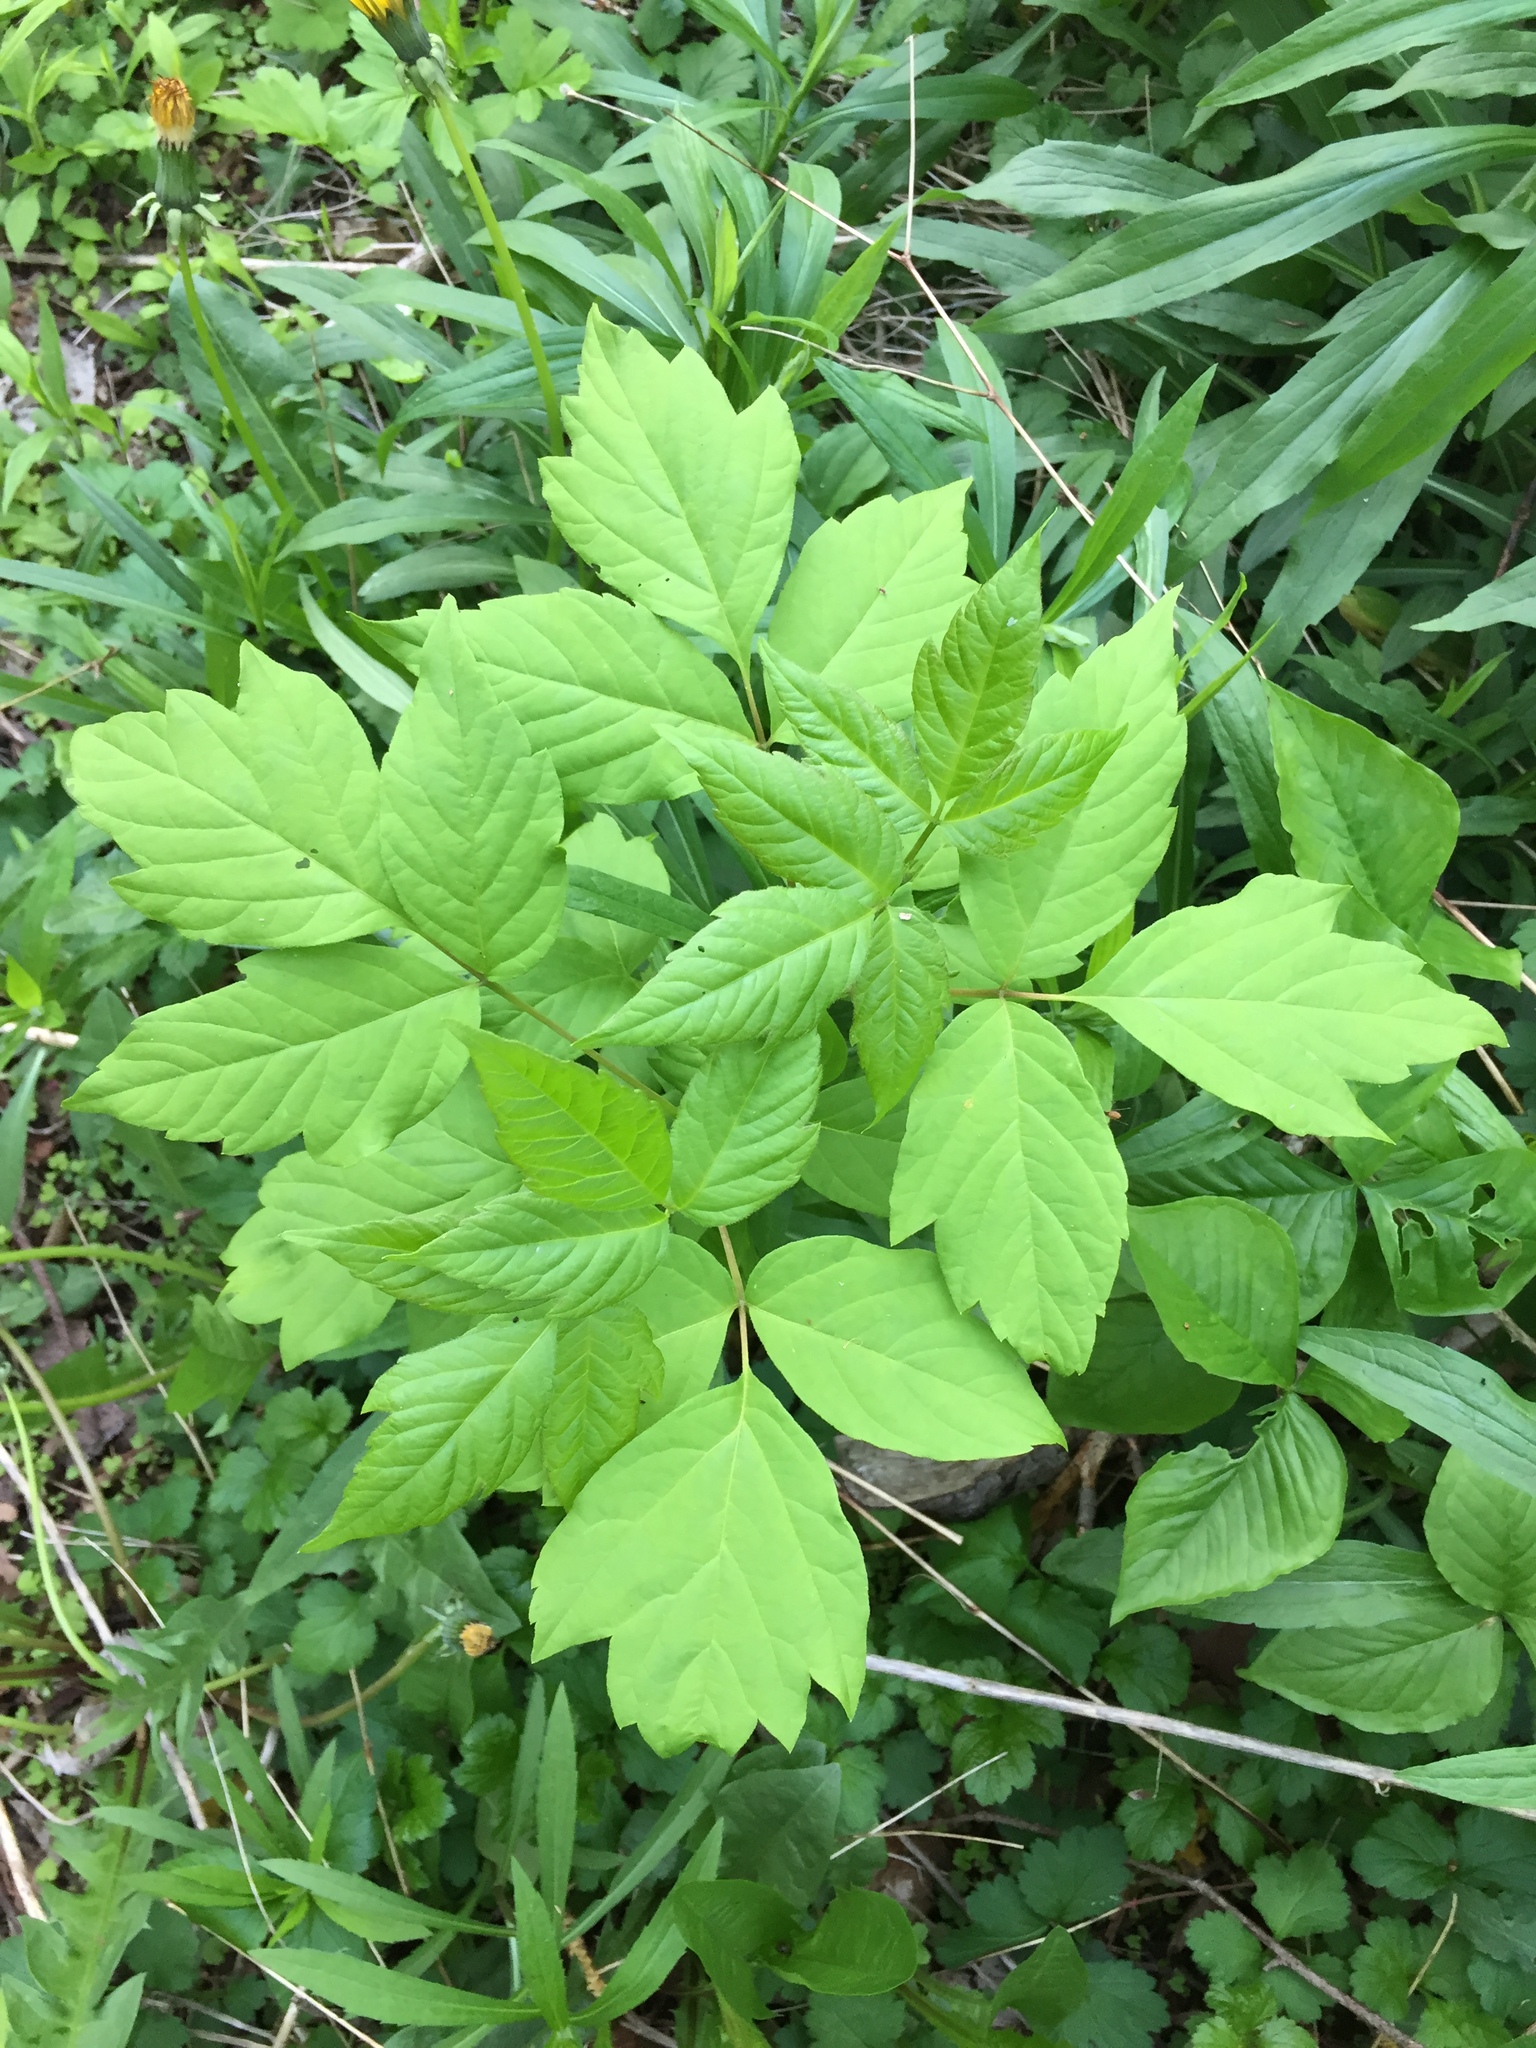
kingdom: Plantae
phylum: Tracheophyta
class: Magnoliopsida
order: Sapindales
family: Sapindaceae
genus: Acer
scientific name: Acer negundo
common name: Ashleaf maple
